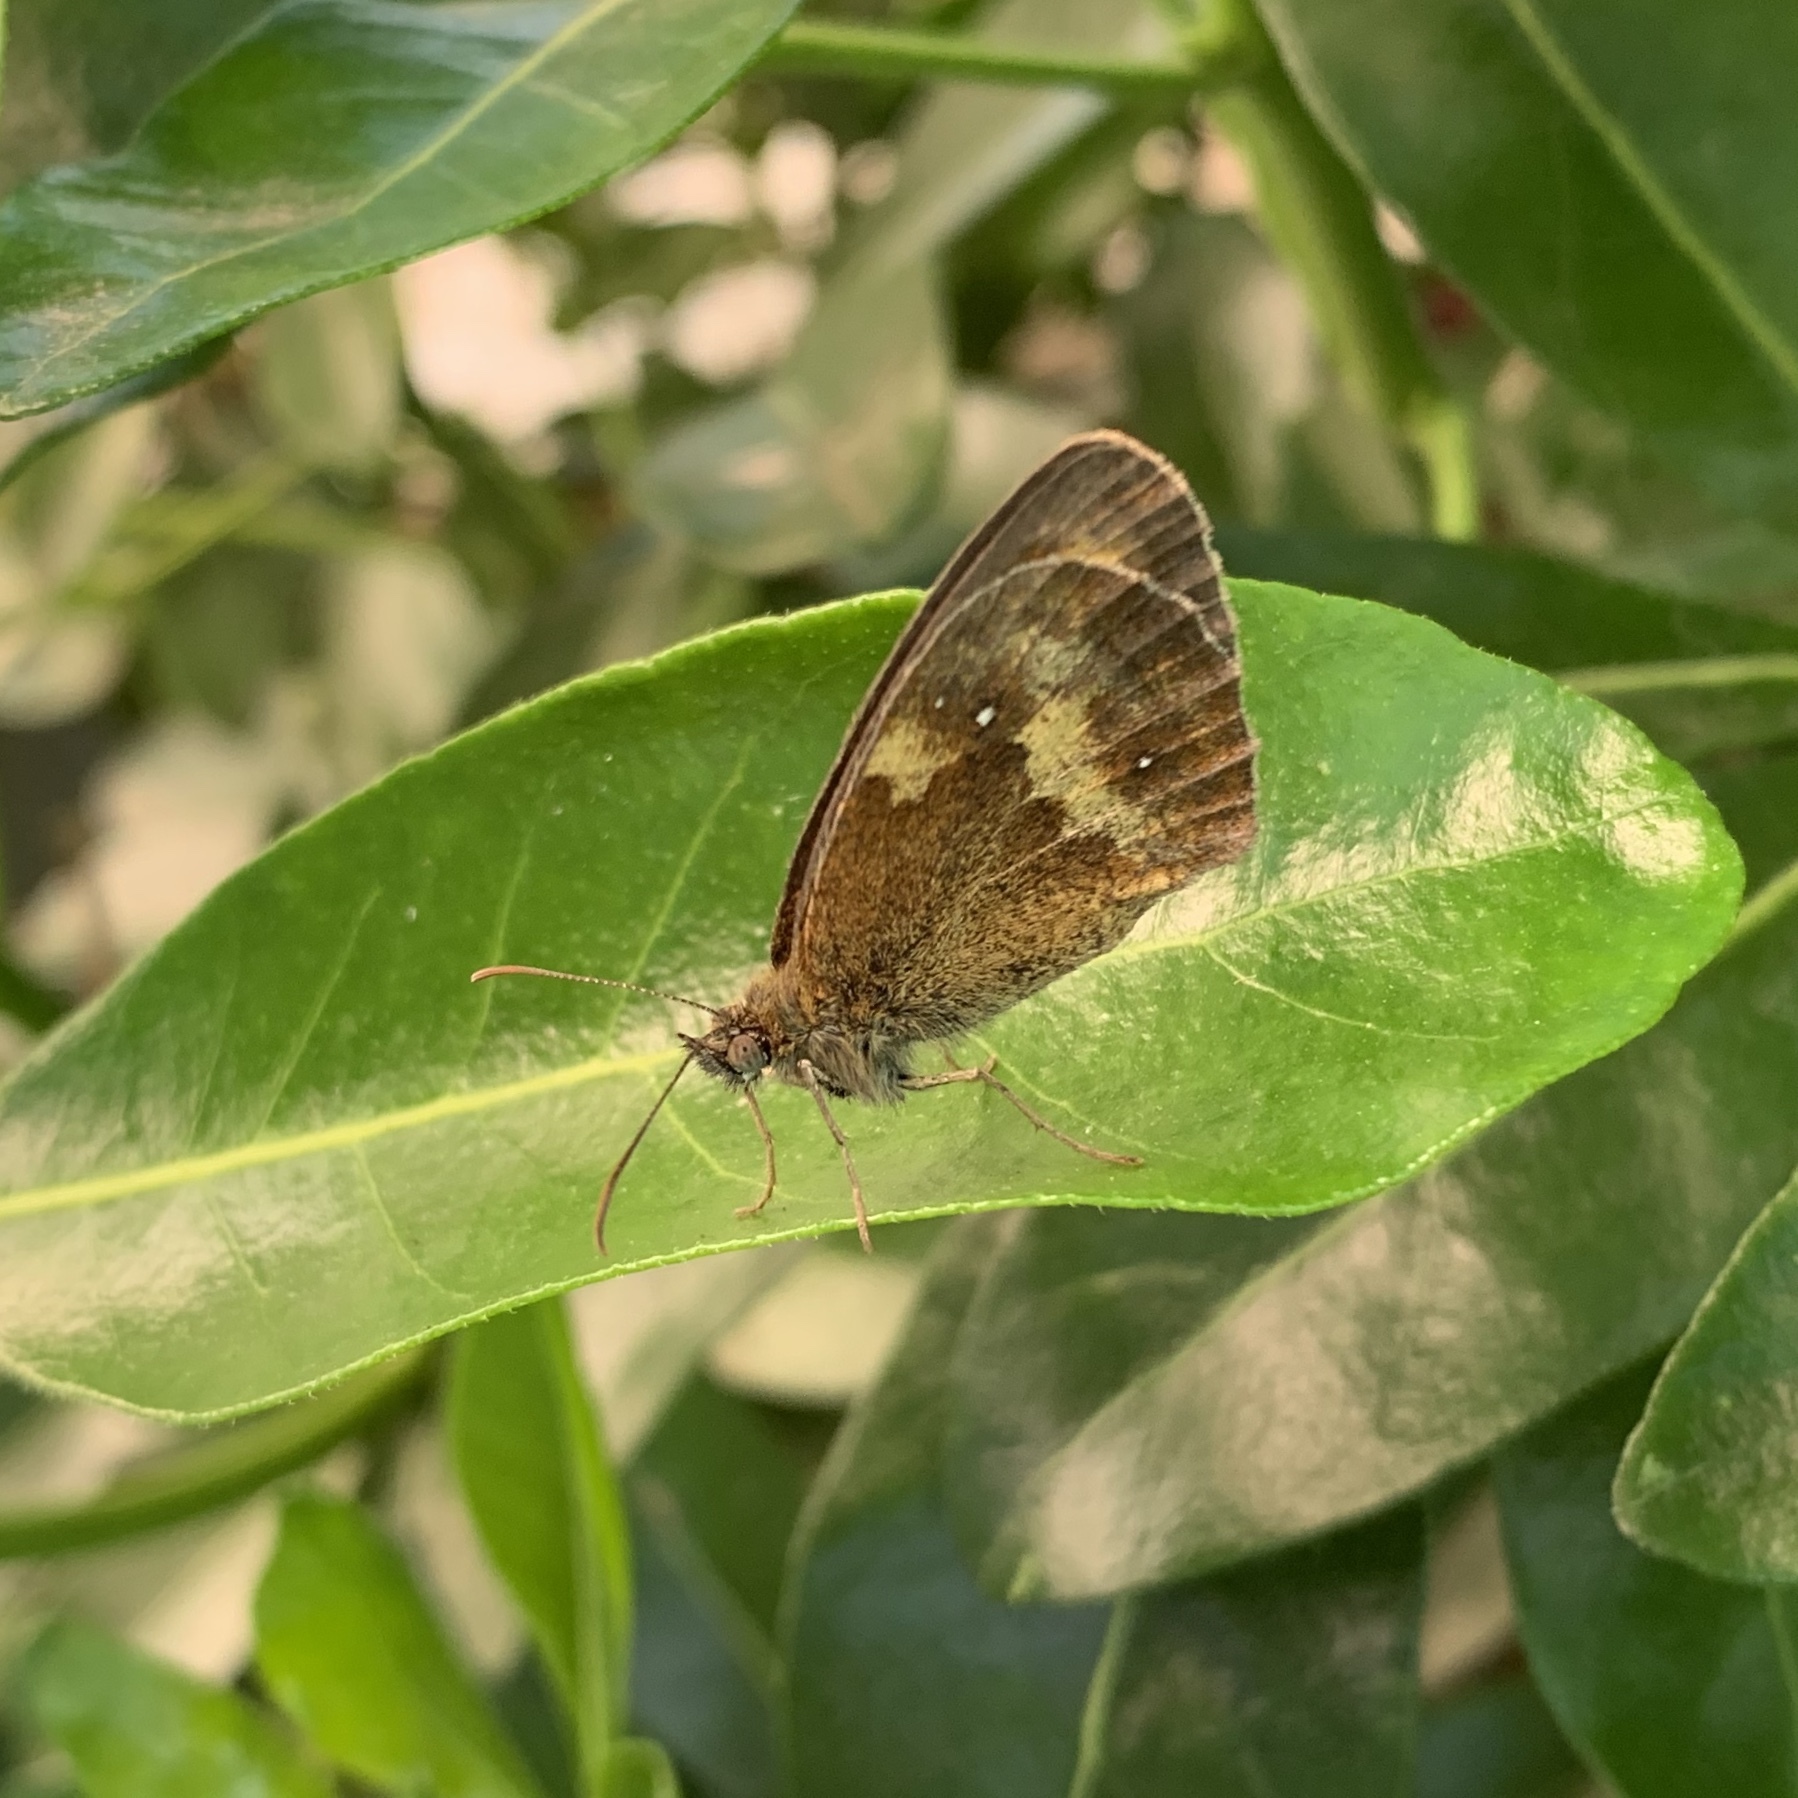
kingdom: Animalia
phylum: Arthropoda
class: Insecta
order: Lepidoptera
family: Nymphalidae
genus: Pyronia
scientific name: Pyronia tithonus
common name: Gatekeeper
